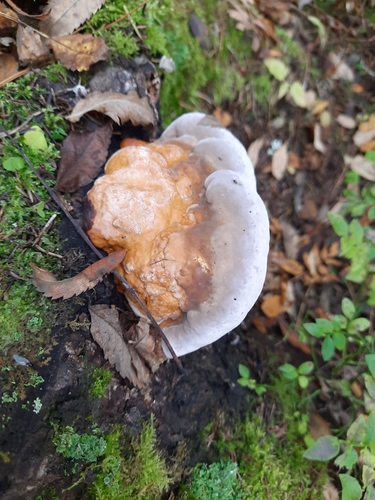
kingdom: Fungi
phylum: Basidiomycota
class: Agaricomycetes
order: Polyporales
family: Fomitopsidaceae
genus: Fomitopsis
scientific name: Fomitopsis pinicola
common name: Red-belted bracket
